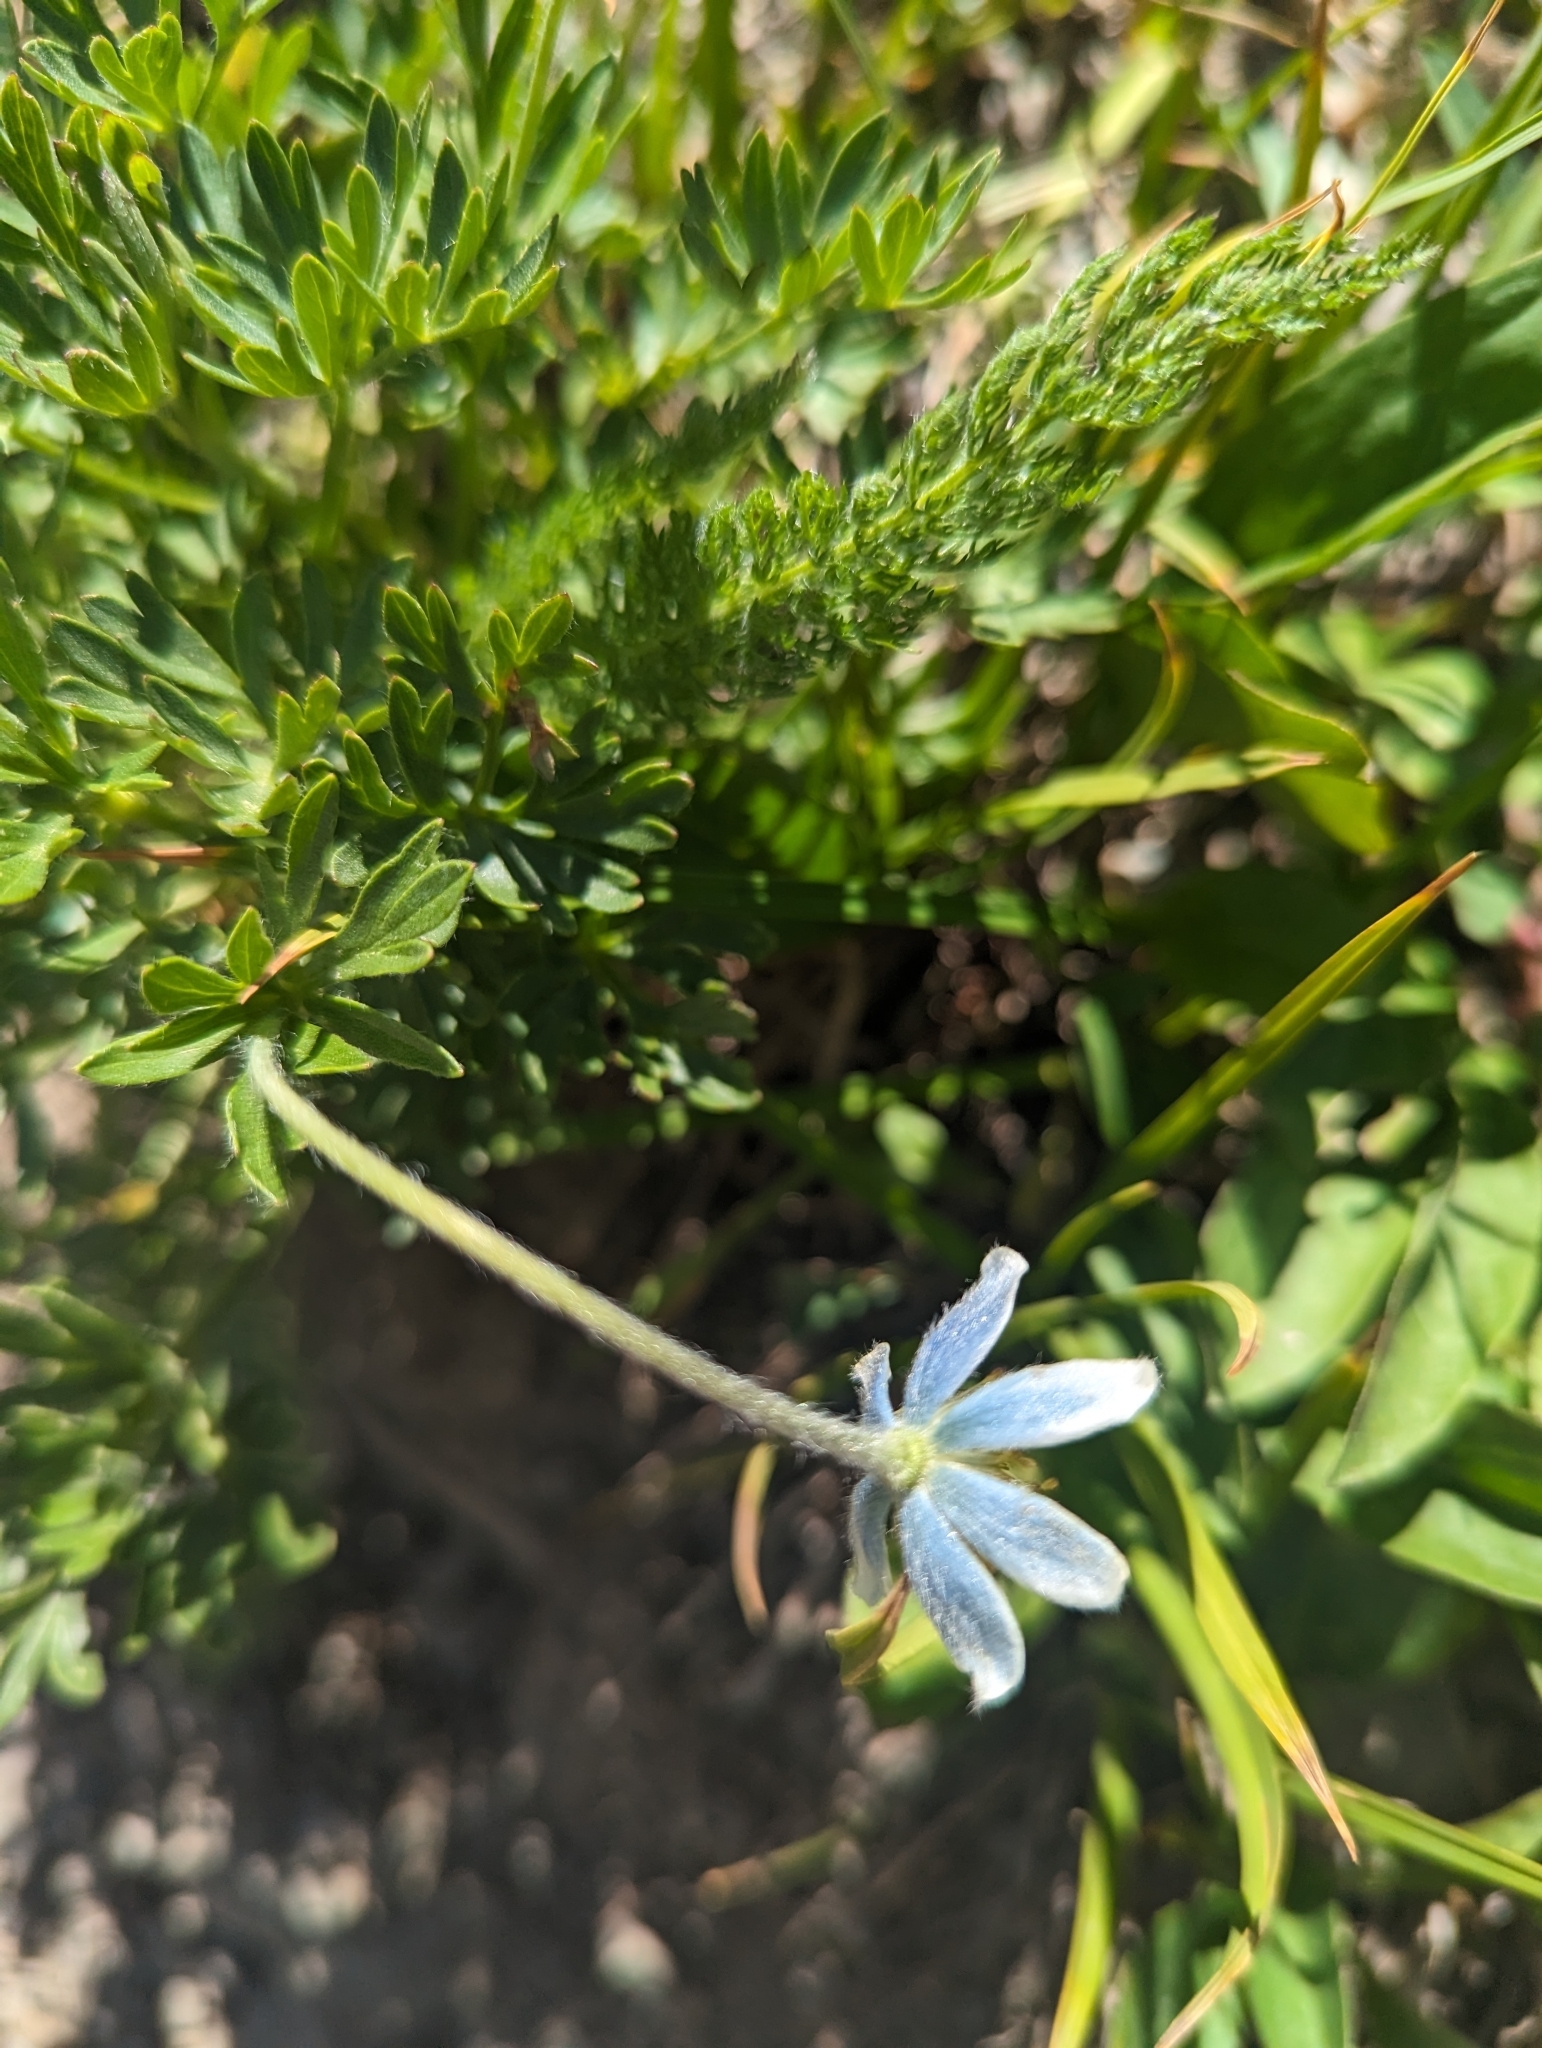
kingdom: Plantae
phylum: Tracheophyta
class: Magnoliopsida
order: Ranunculales
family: Ranunculaceae
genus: Anemone
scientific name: Anemone drummondii
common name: Drummond's anemone
